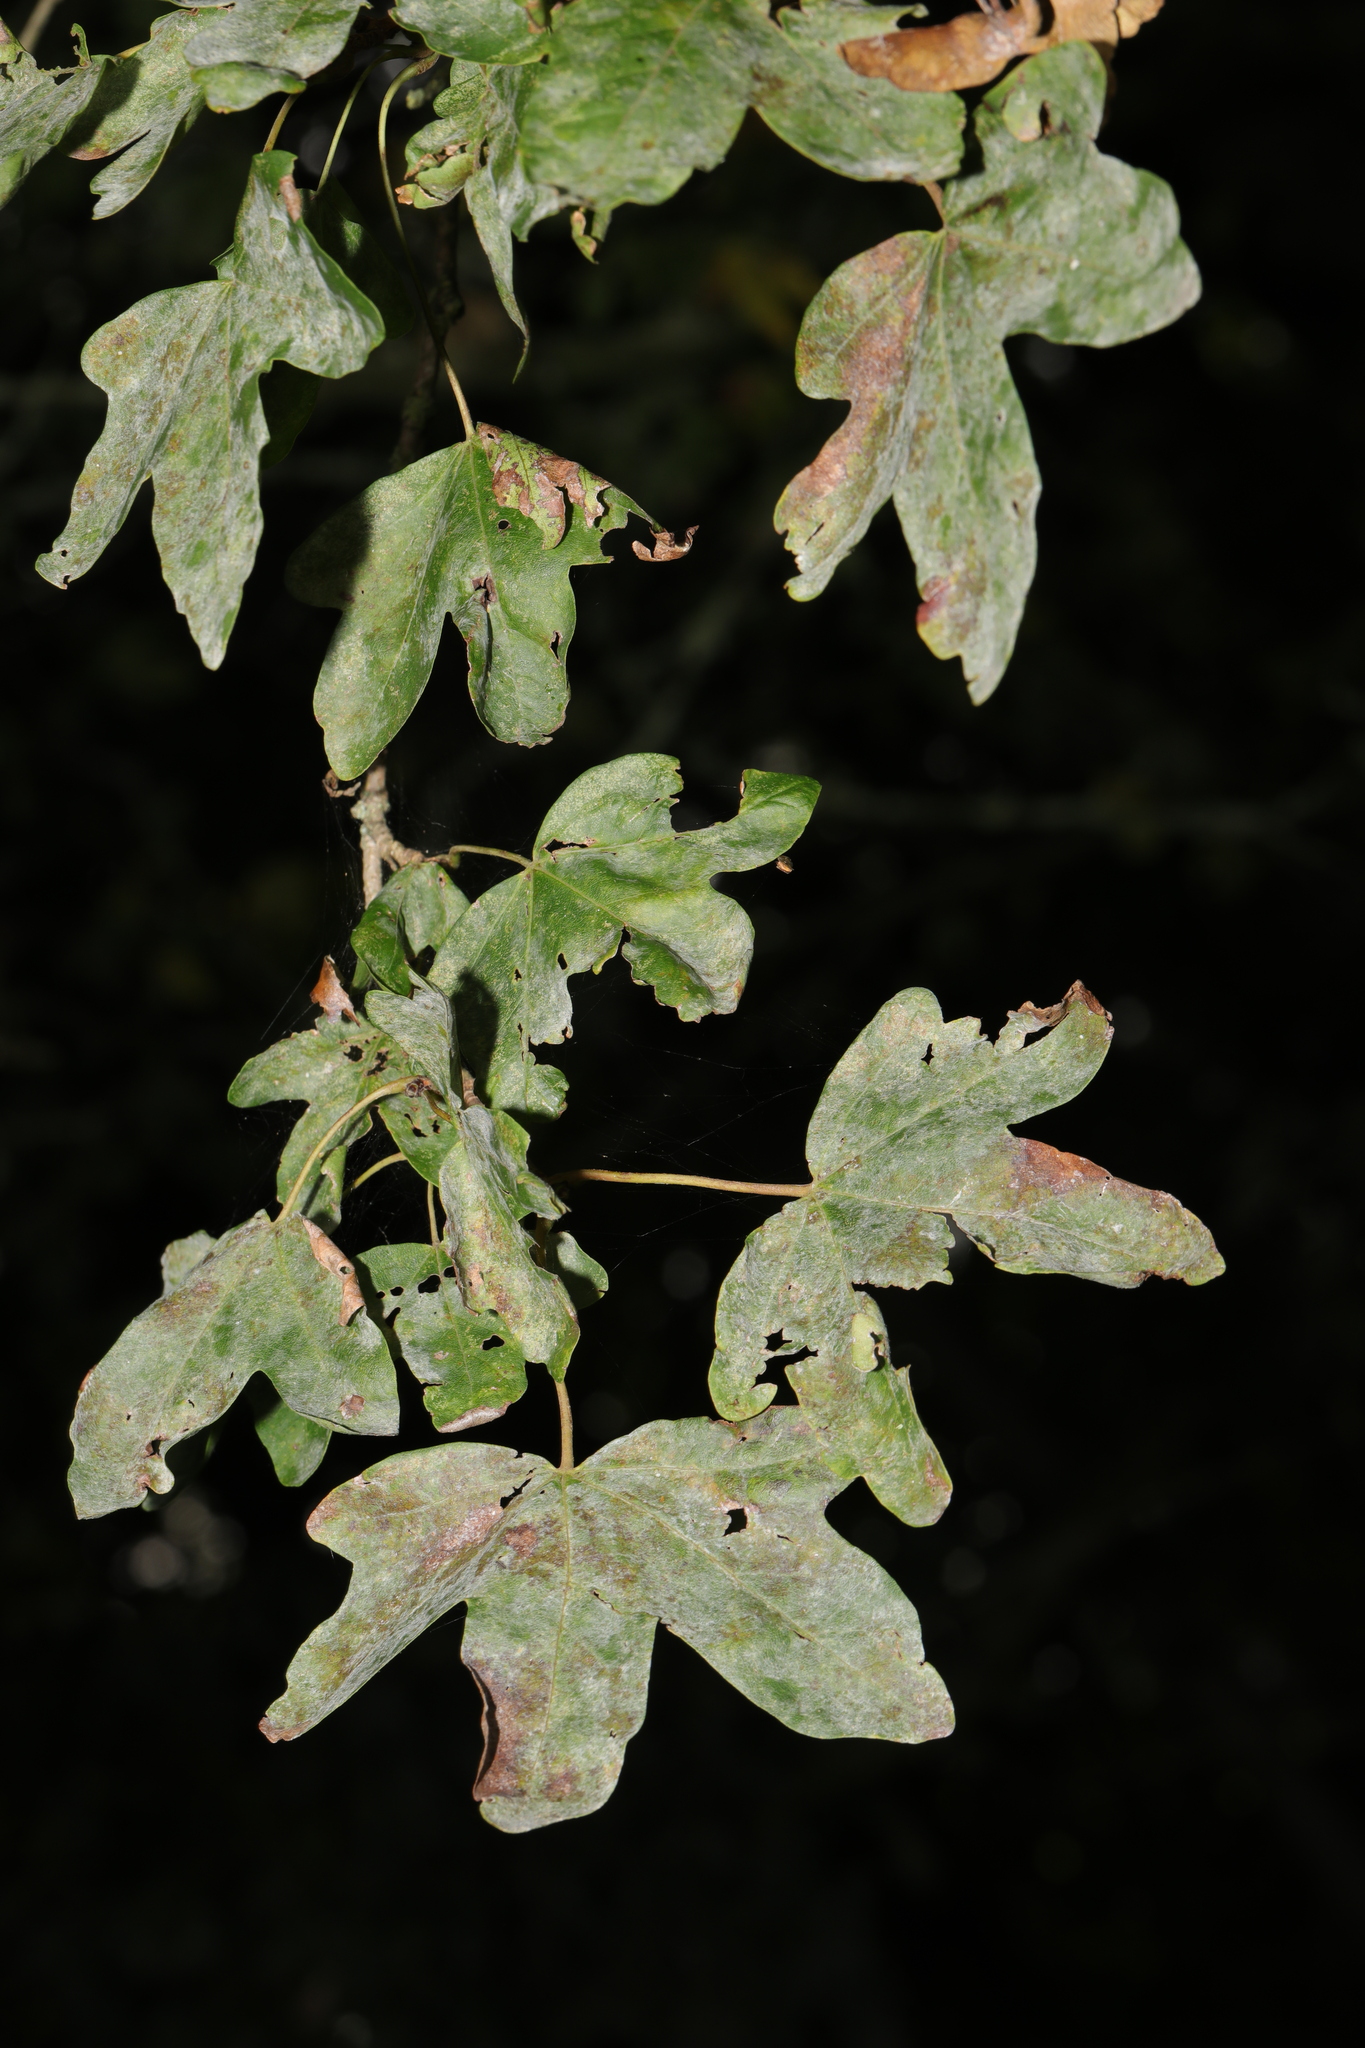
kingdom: Plantae
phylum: Tracheophyta
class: Magnoliopsida
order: Sapindales
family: Sapindaceae
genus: Acer
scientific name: Acer campestre
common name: Field maple
